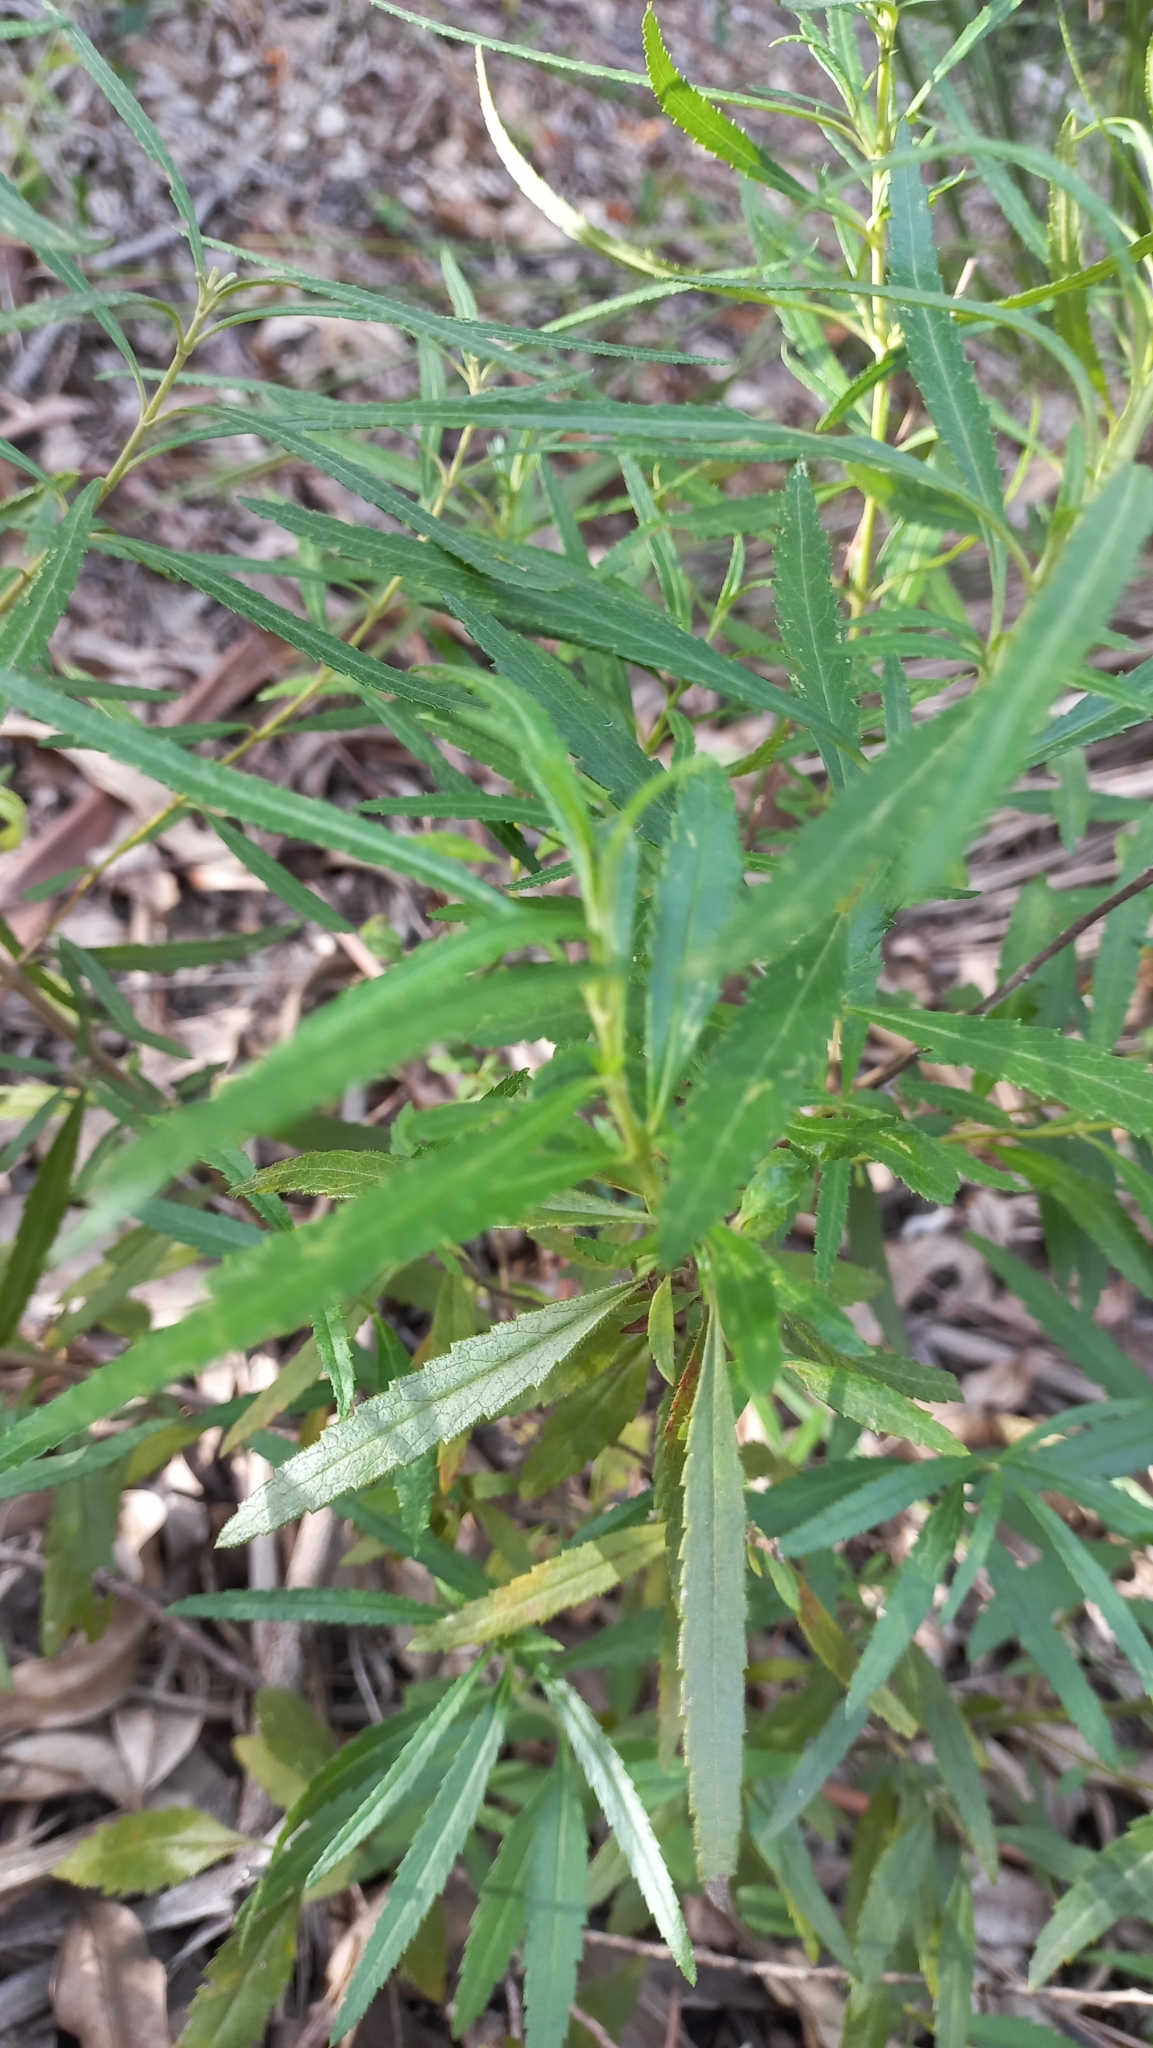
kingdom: Plantae
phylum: Tracheophyta
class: Magnoliopsida
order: Asterales
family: Asteraceae
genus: Grazielia
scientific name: Grazielia serrata
